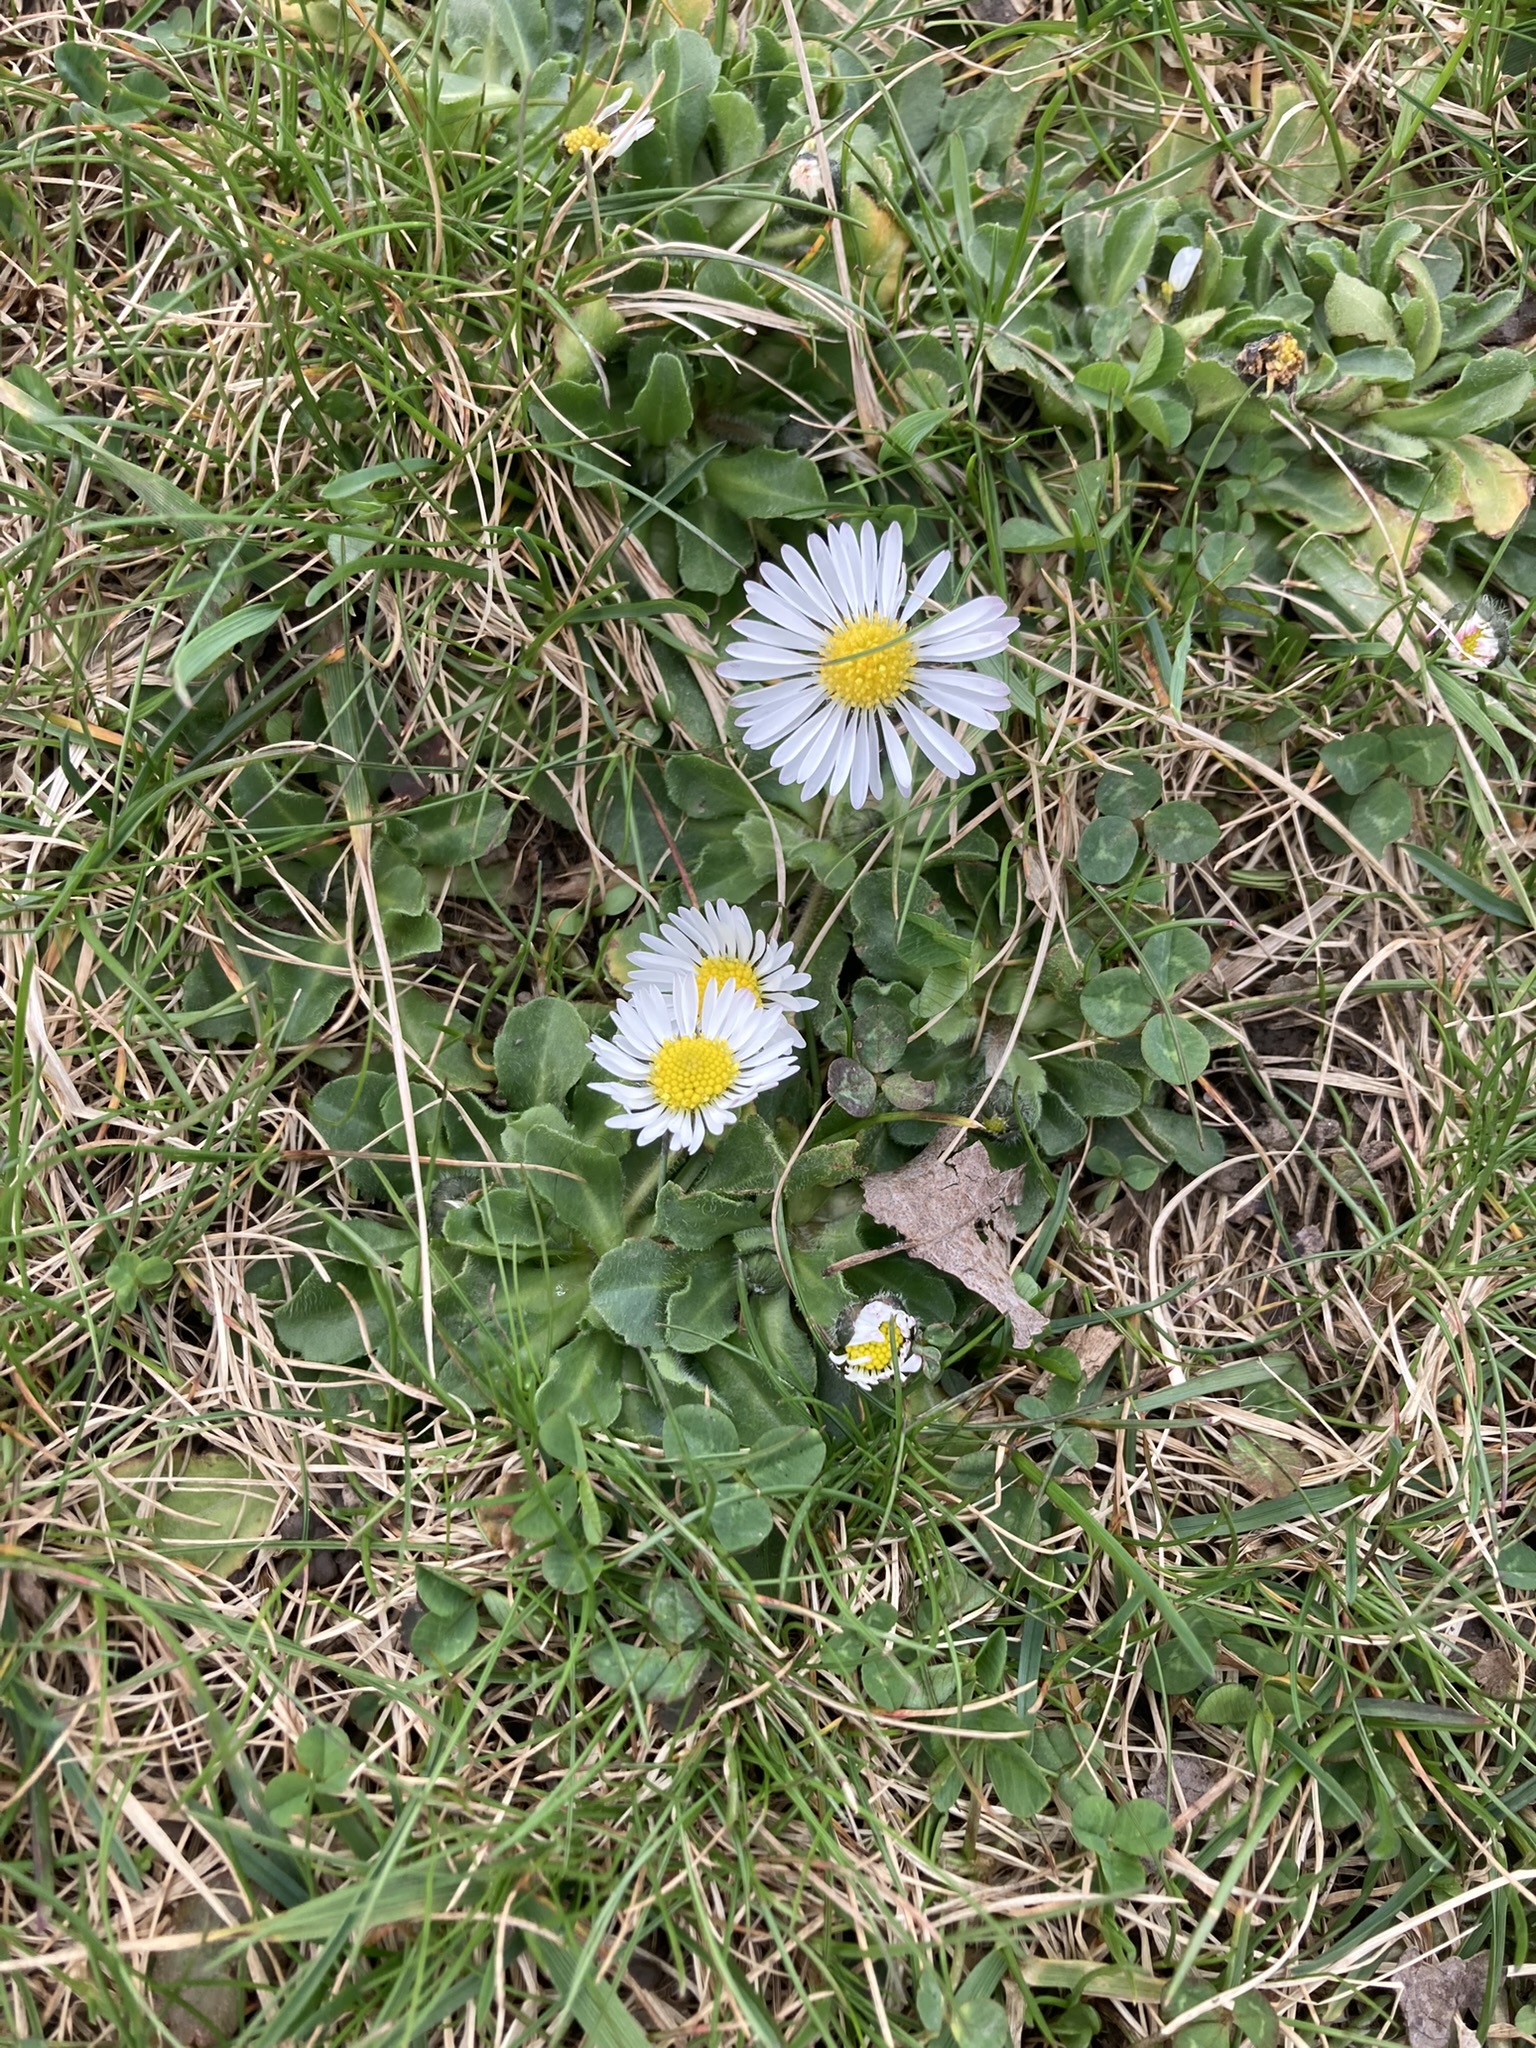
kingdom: Plantae
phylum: Tracheophyta
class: Magnoliopsida
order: Asterales
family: Asteraceae
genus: Bellis
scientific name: Bellis perennis
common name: Lawndaisy
